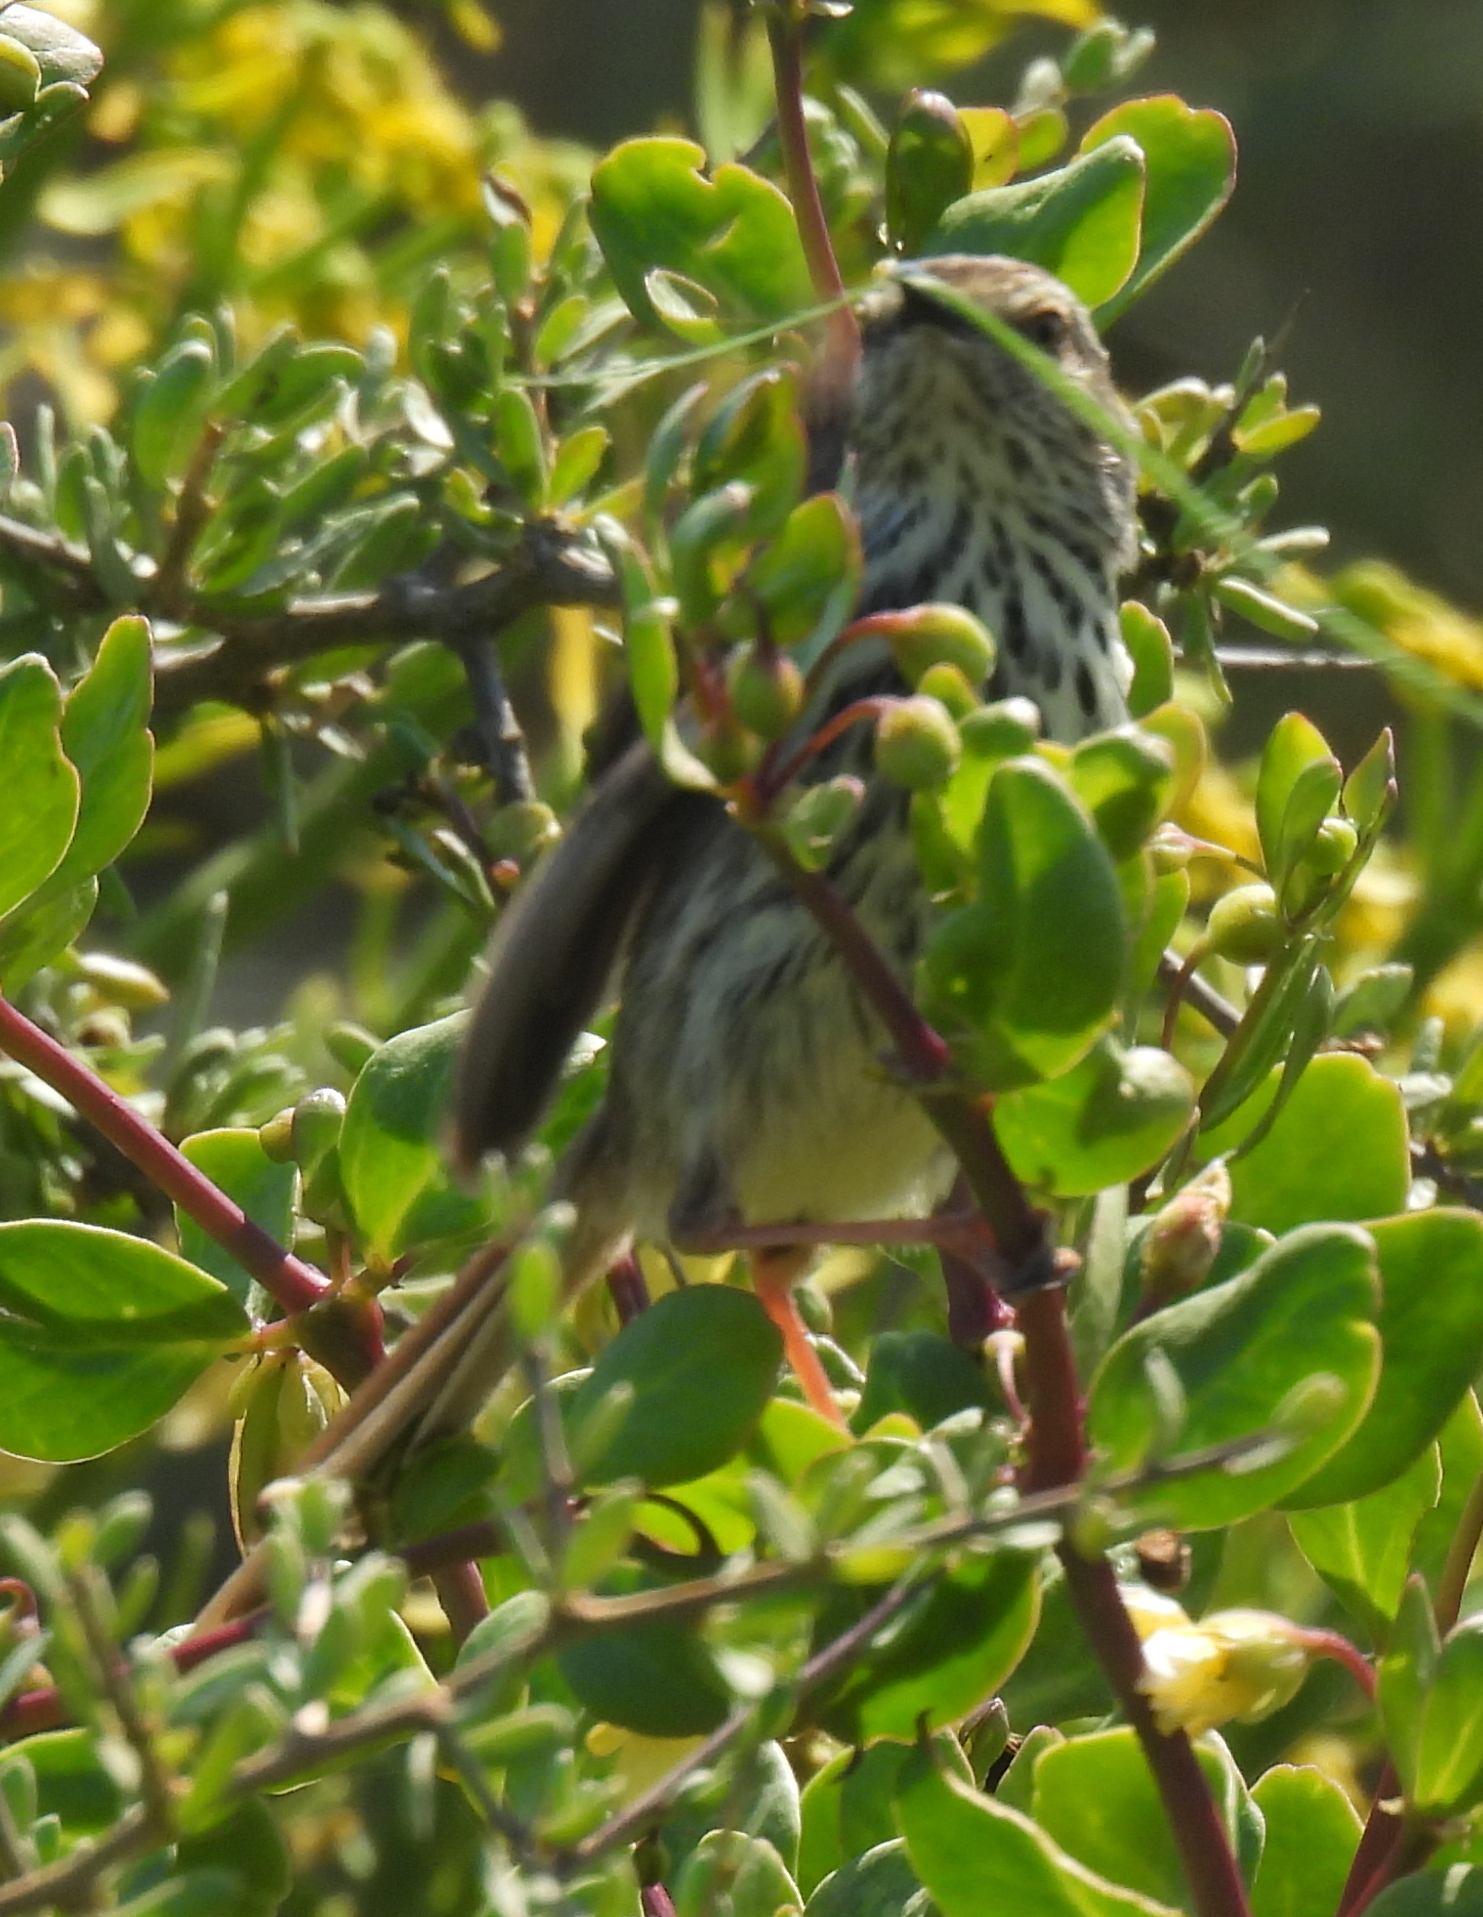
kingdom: Animalia
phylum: Chordata
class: Aves
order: Passeriformes
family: Cisticolidae
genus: Prinia
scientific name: Prinia maculosa
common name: Karoo prinia
